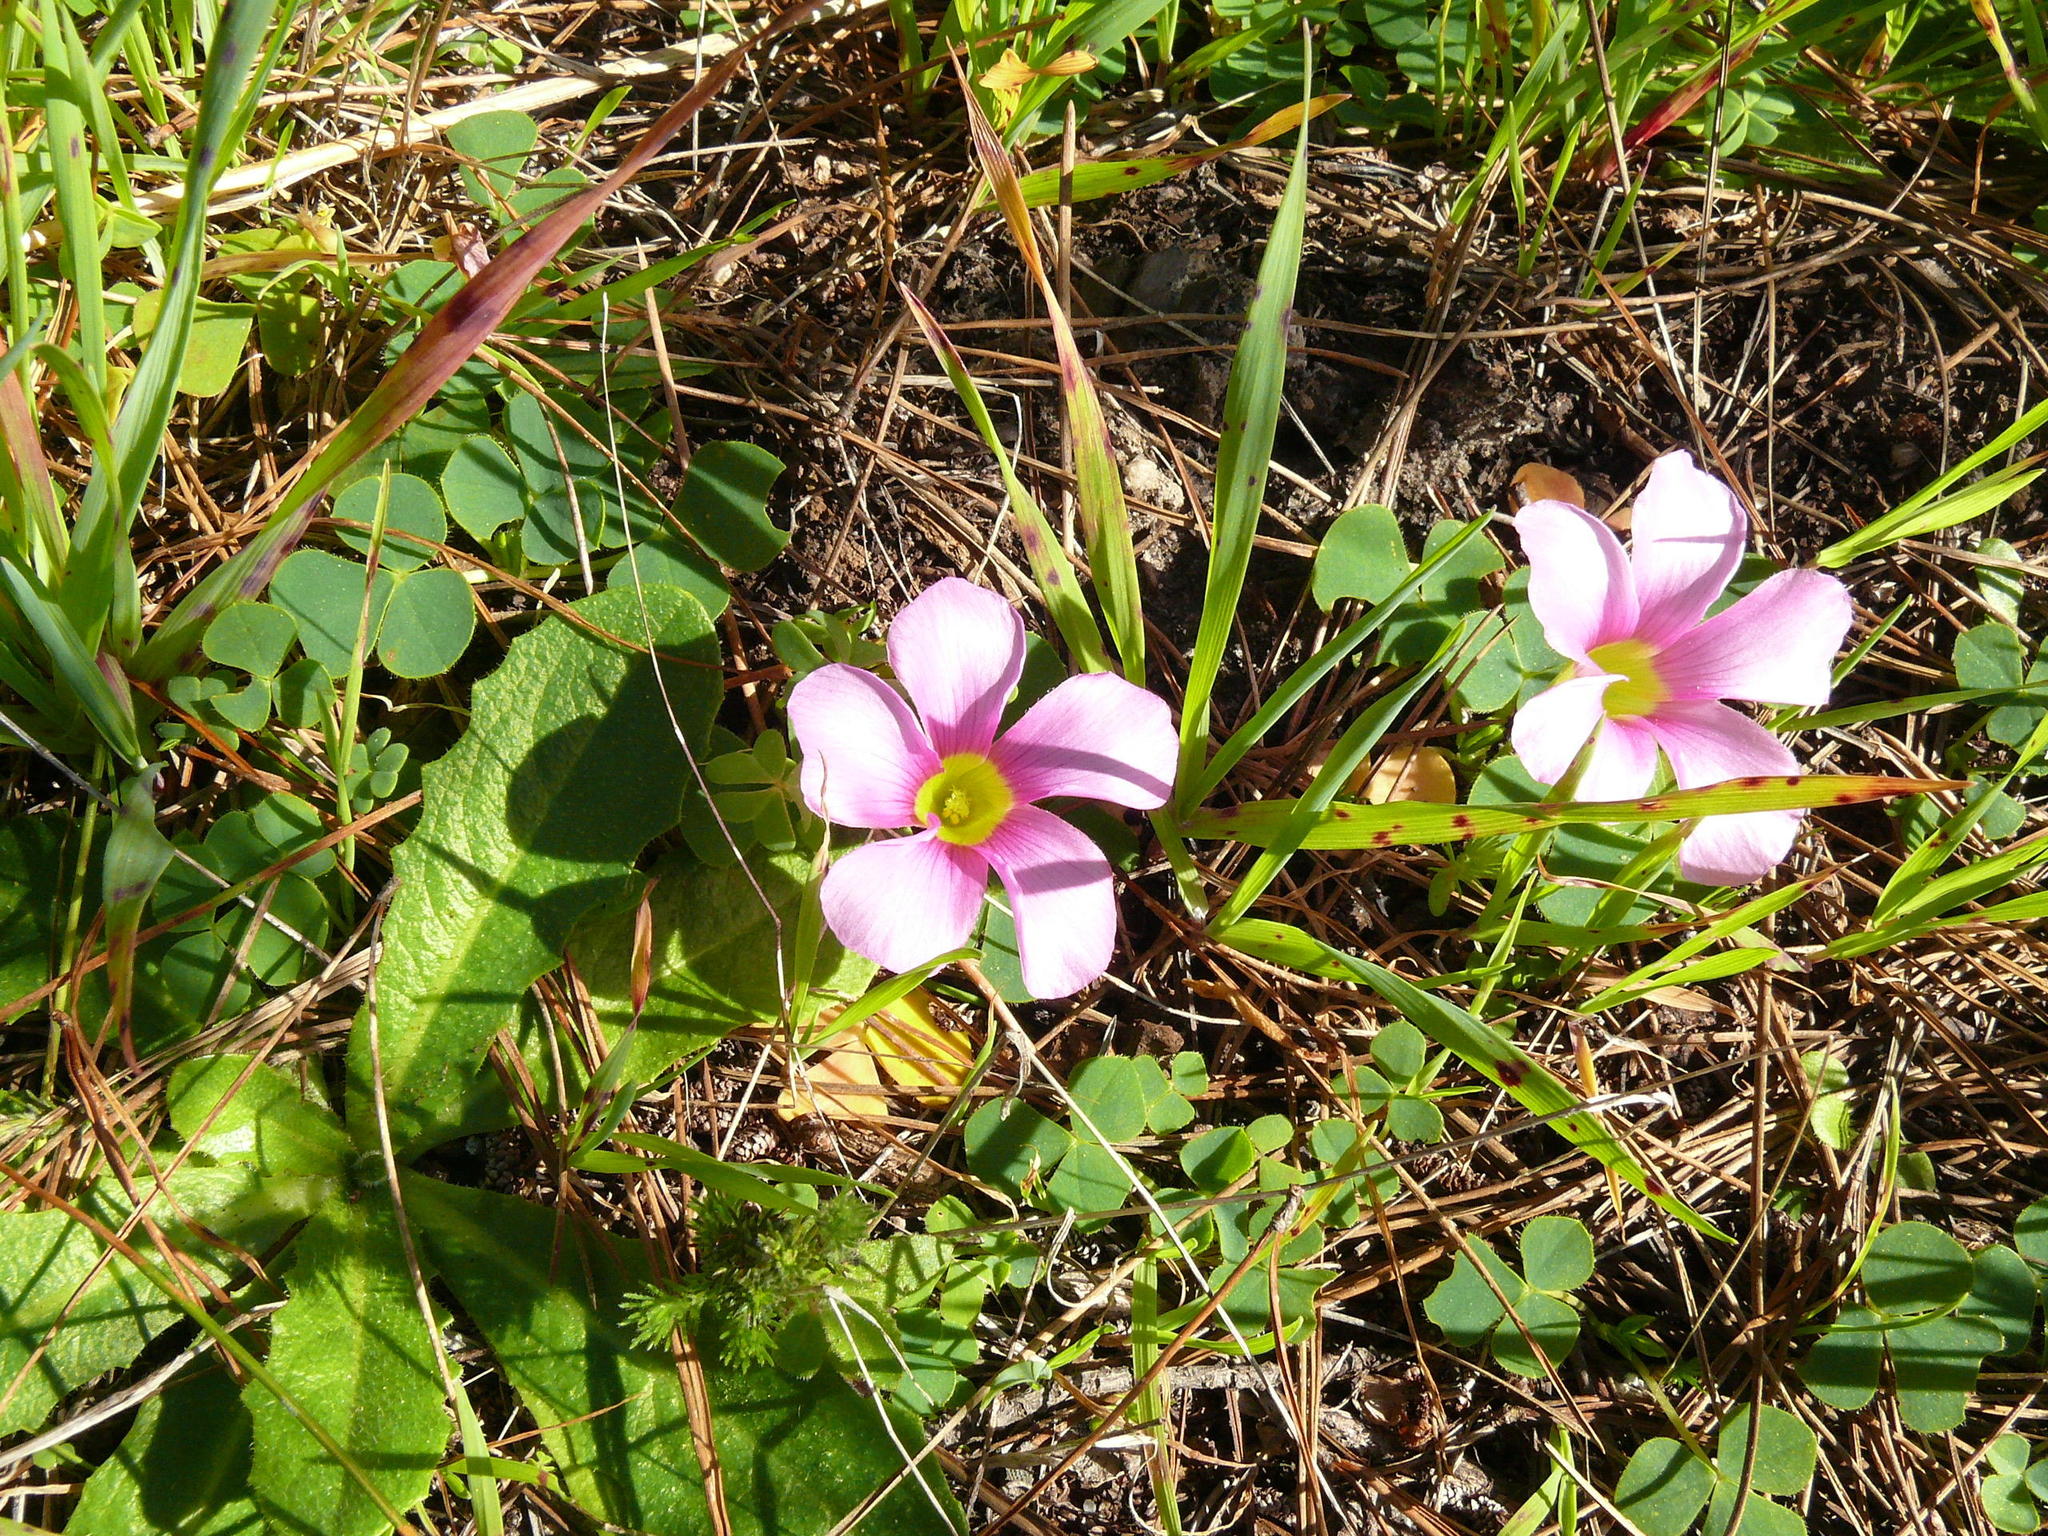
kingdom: Plantae
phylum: Tracheophyta
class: Magnoliopsida
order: Oxalidales
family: Oxalidaceae
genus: Oxalis
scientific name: Oxalis purpurea
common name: Purple woodsorrel
